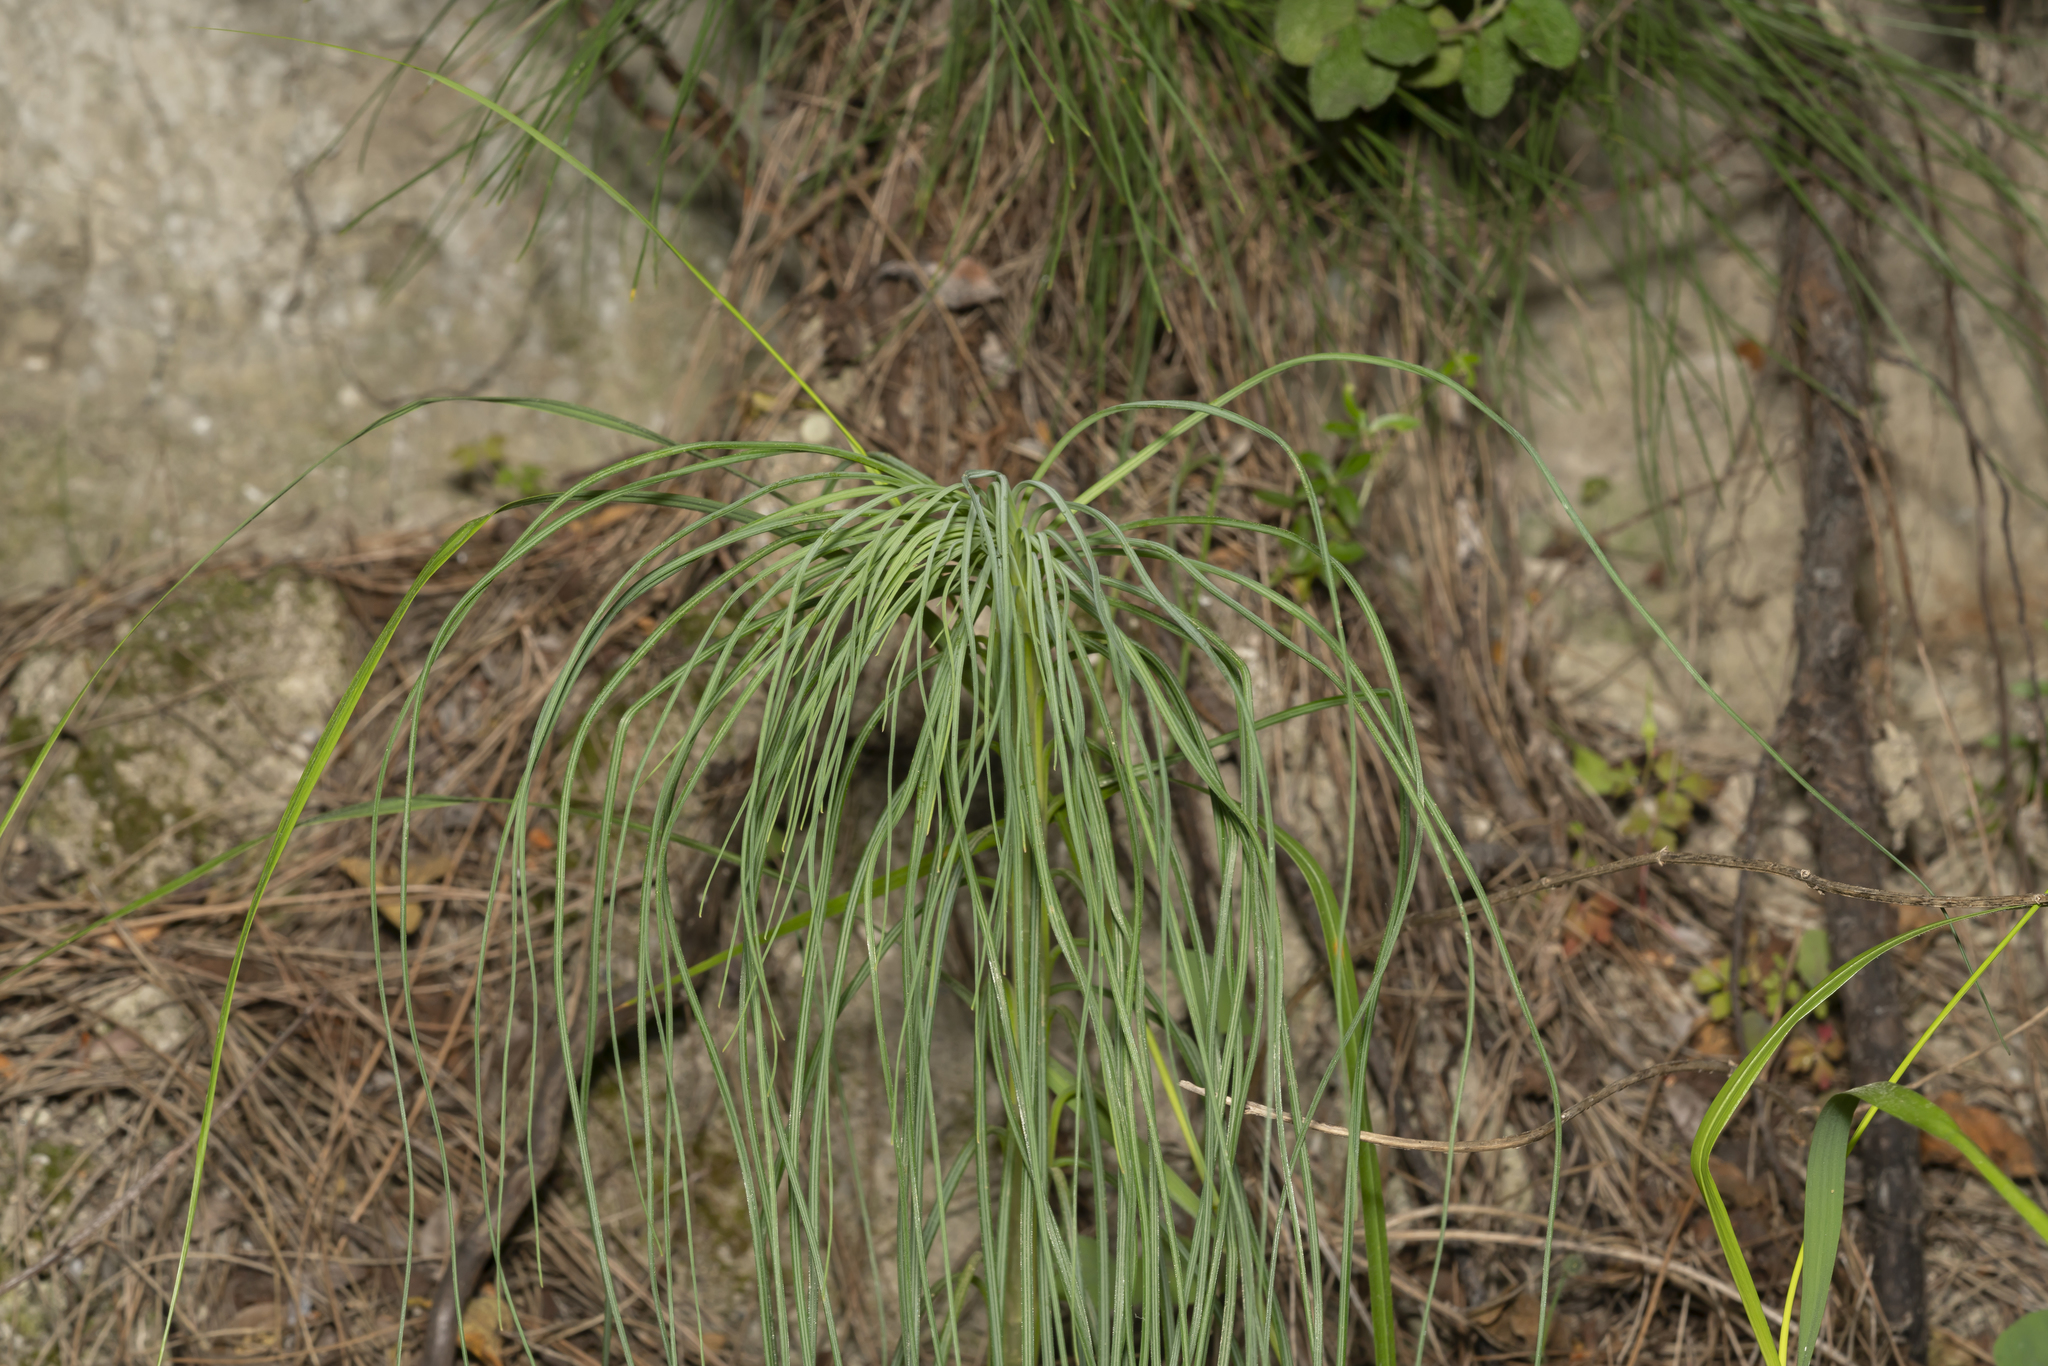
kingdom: Plantae
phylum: Tracheophyta
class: Liliopsida
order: Asparagales
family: Asphodelaceae
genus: Asphodeline
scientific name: Asphodeline liburnica
